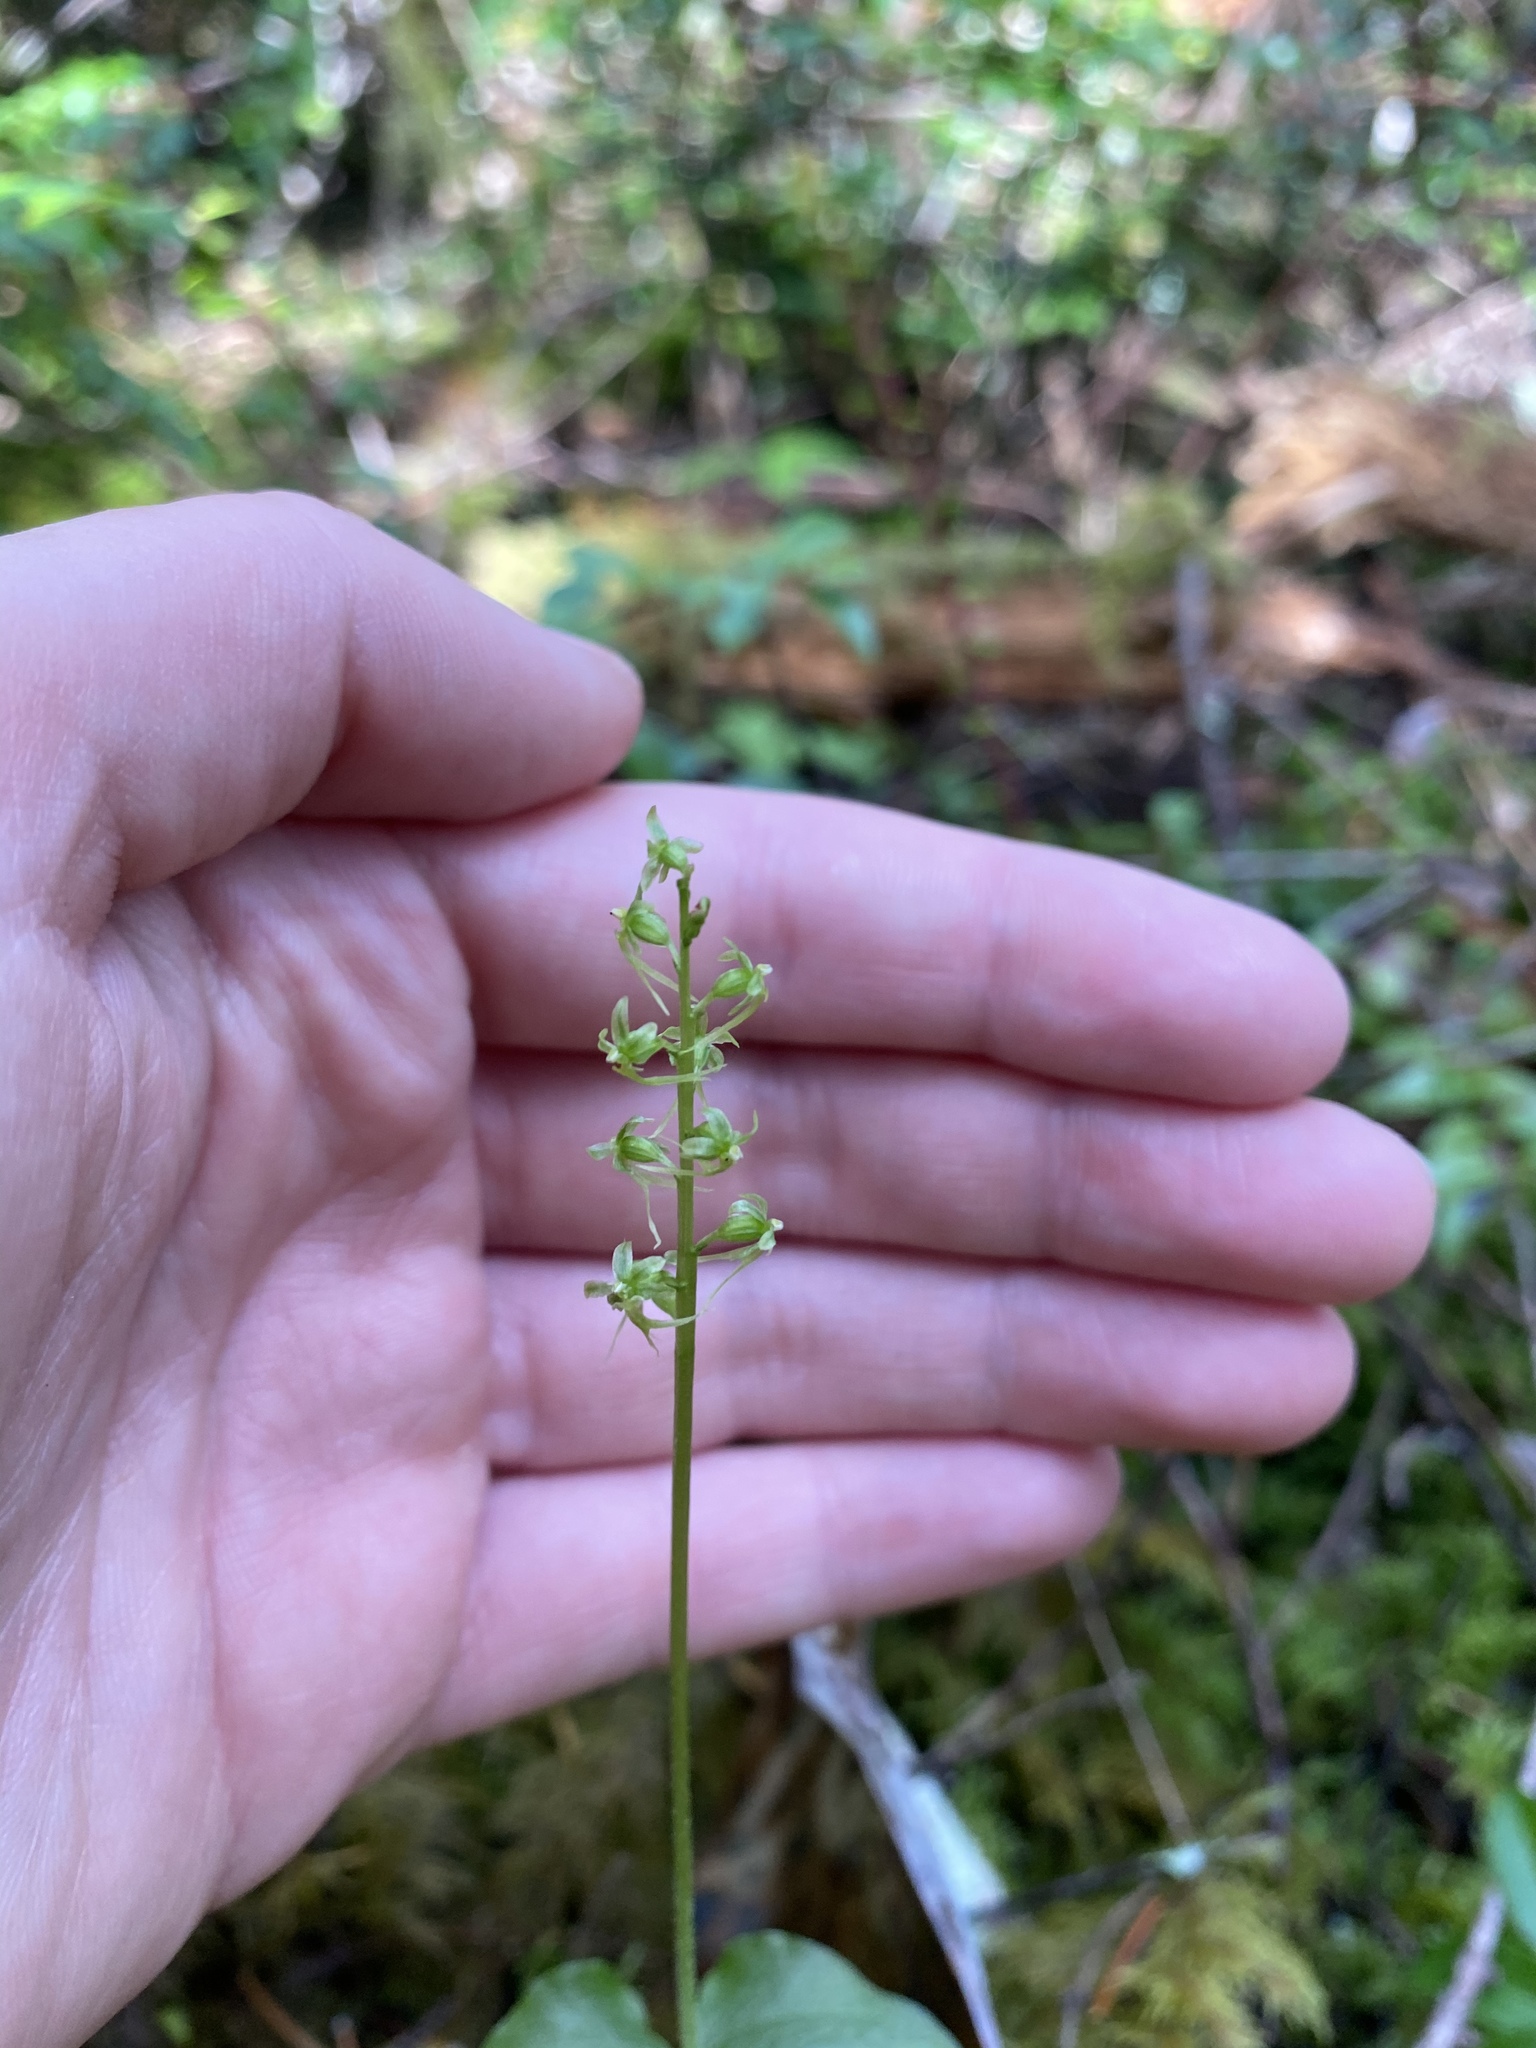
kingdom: Plantae
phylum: Tracheophyta
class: Liliopsida
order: Asparagales
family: Orchidaceae
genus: Neottia
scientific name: Neottia cordata
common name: Lesser twayblade
